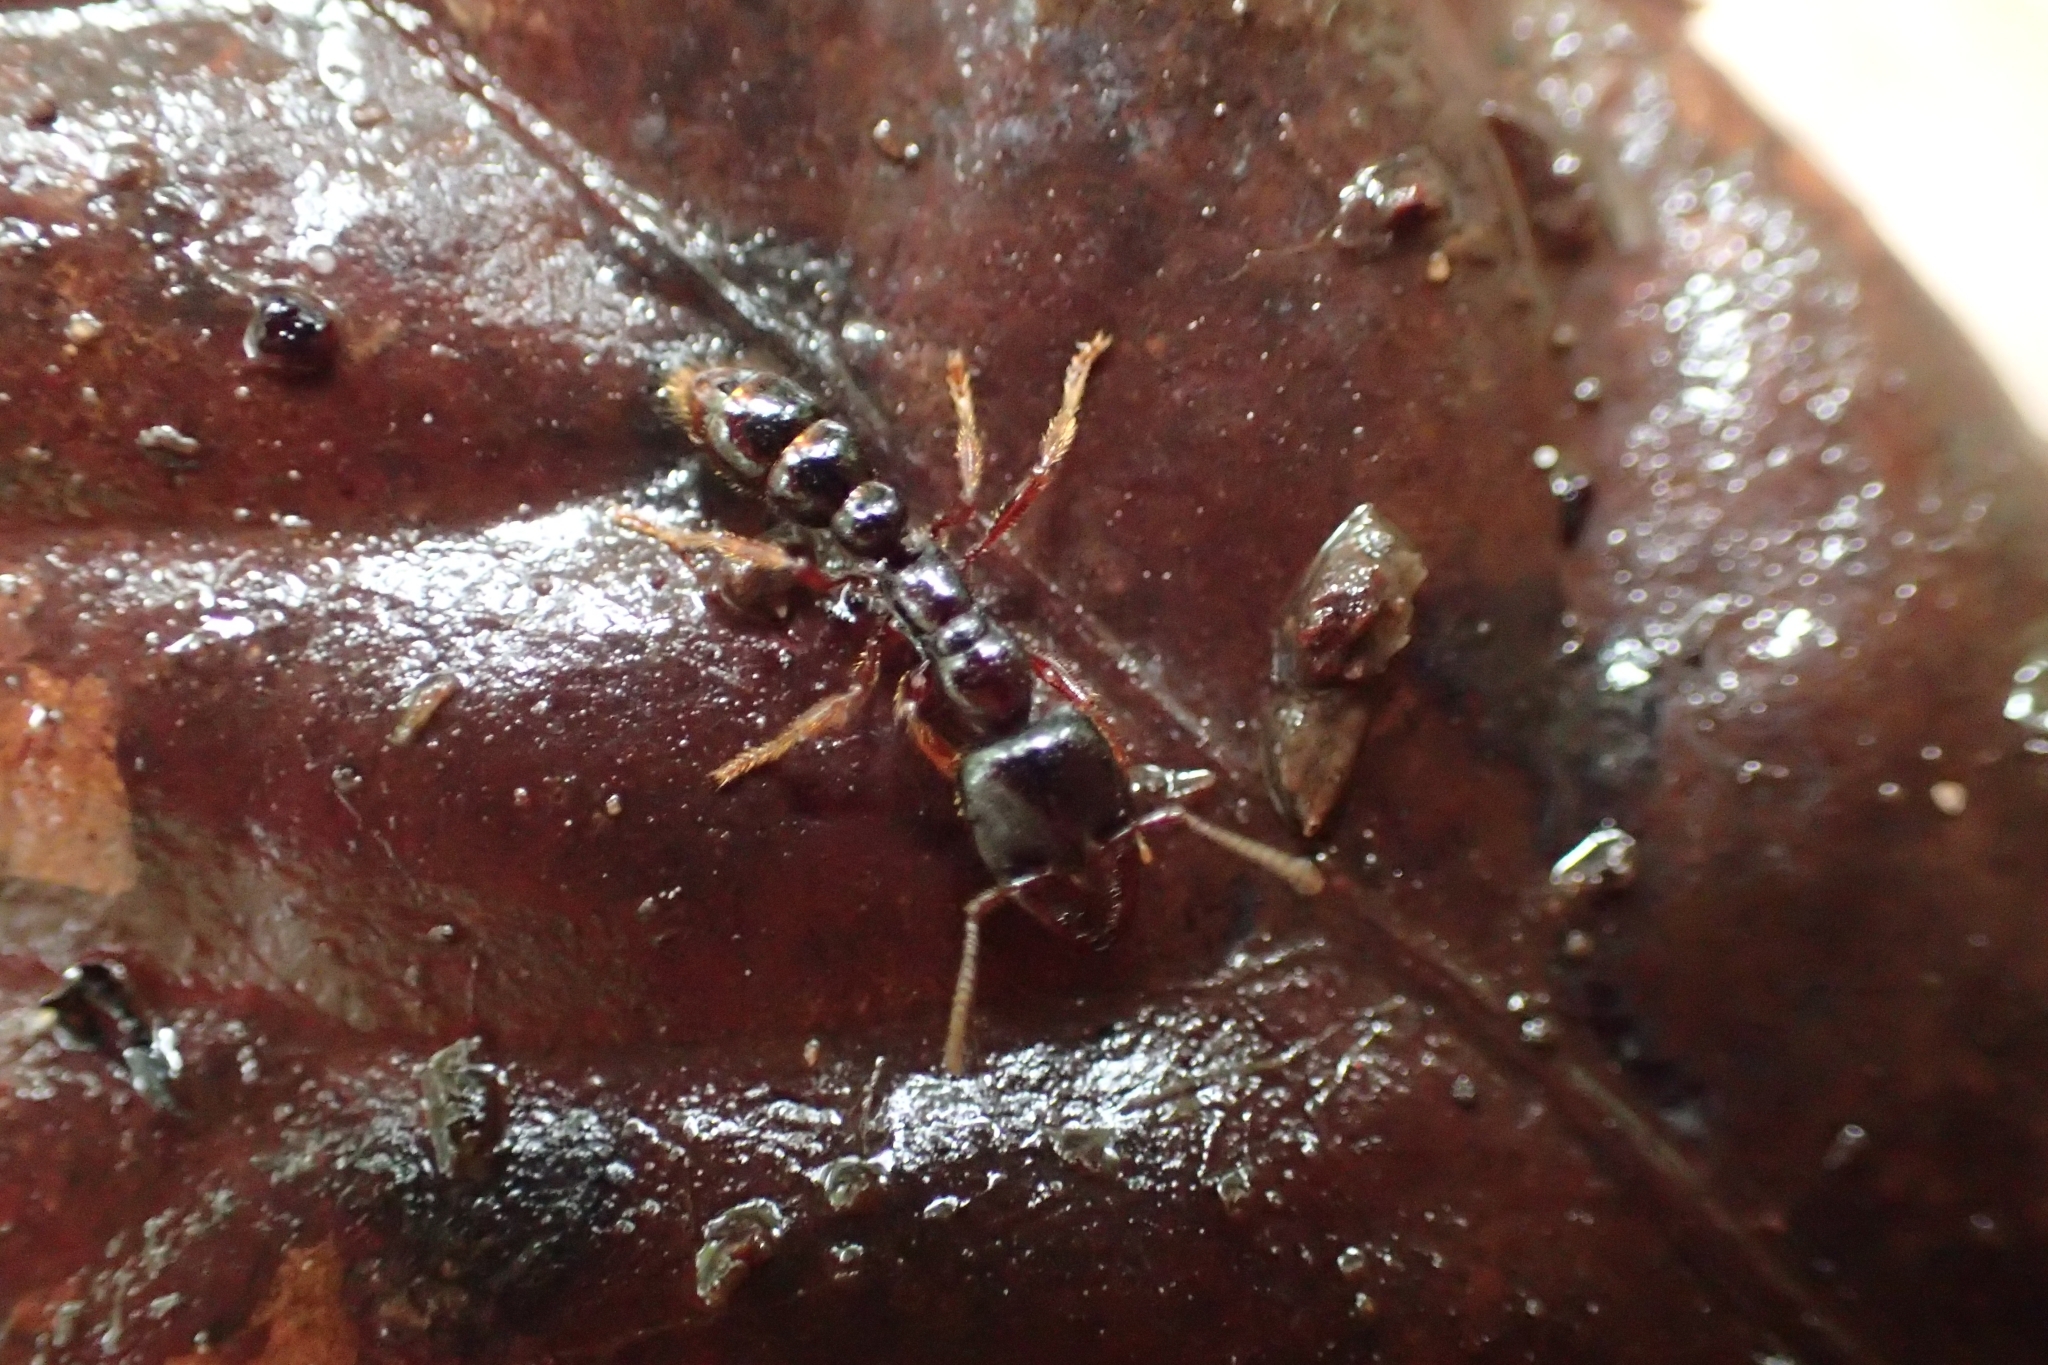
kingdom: Animalia
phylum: Arthropoda
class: Insecta
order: Hymenoptera
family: Formicidae
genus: Amblyopone
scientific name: Amblyopone australis
